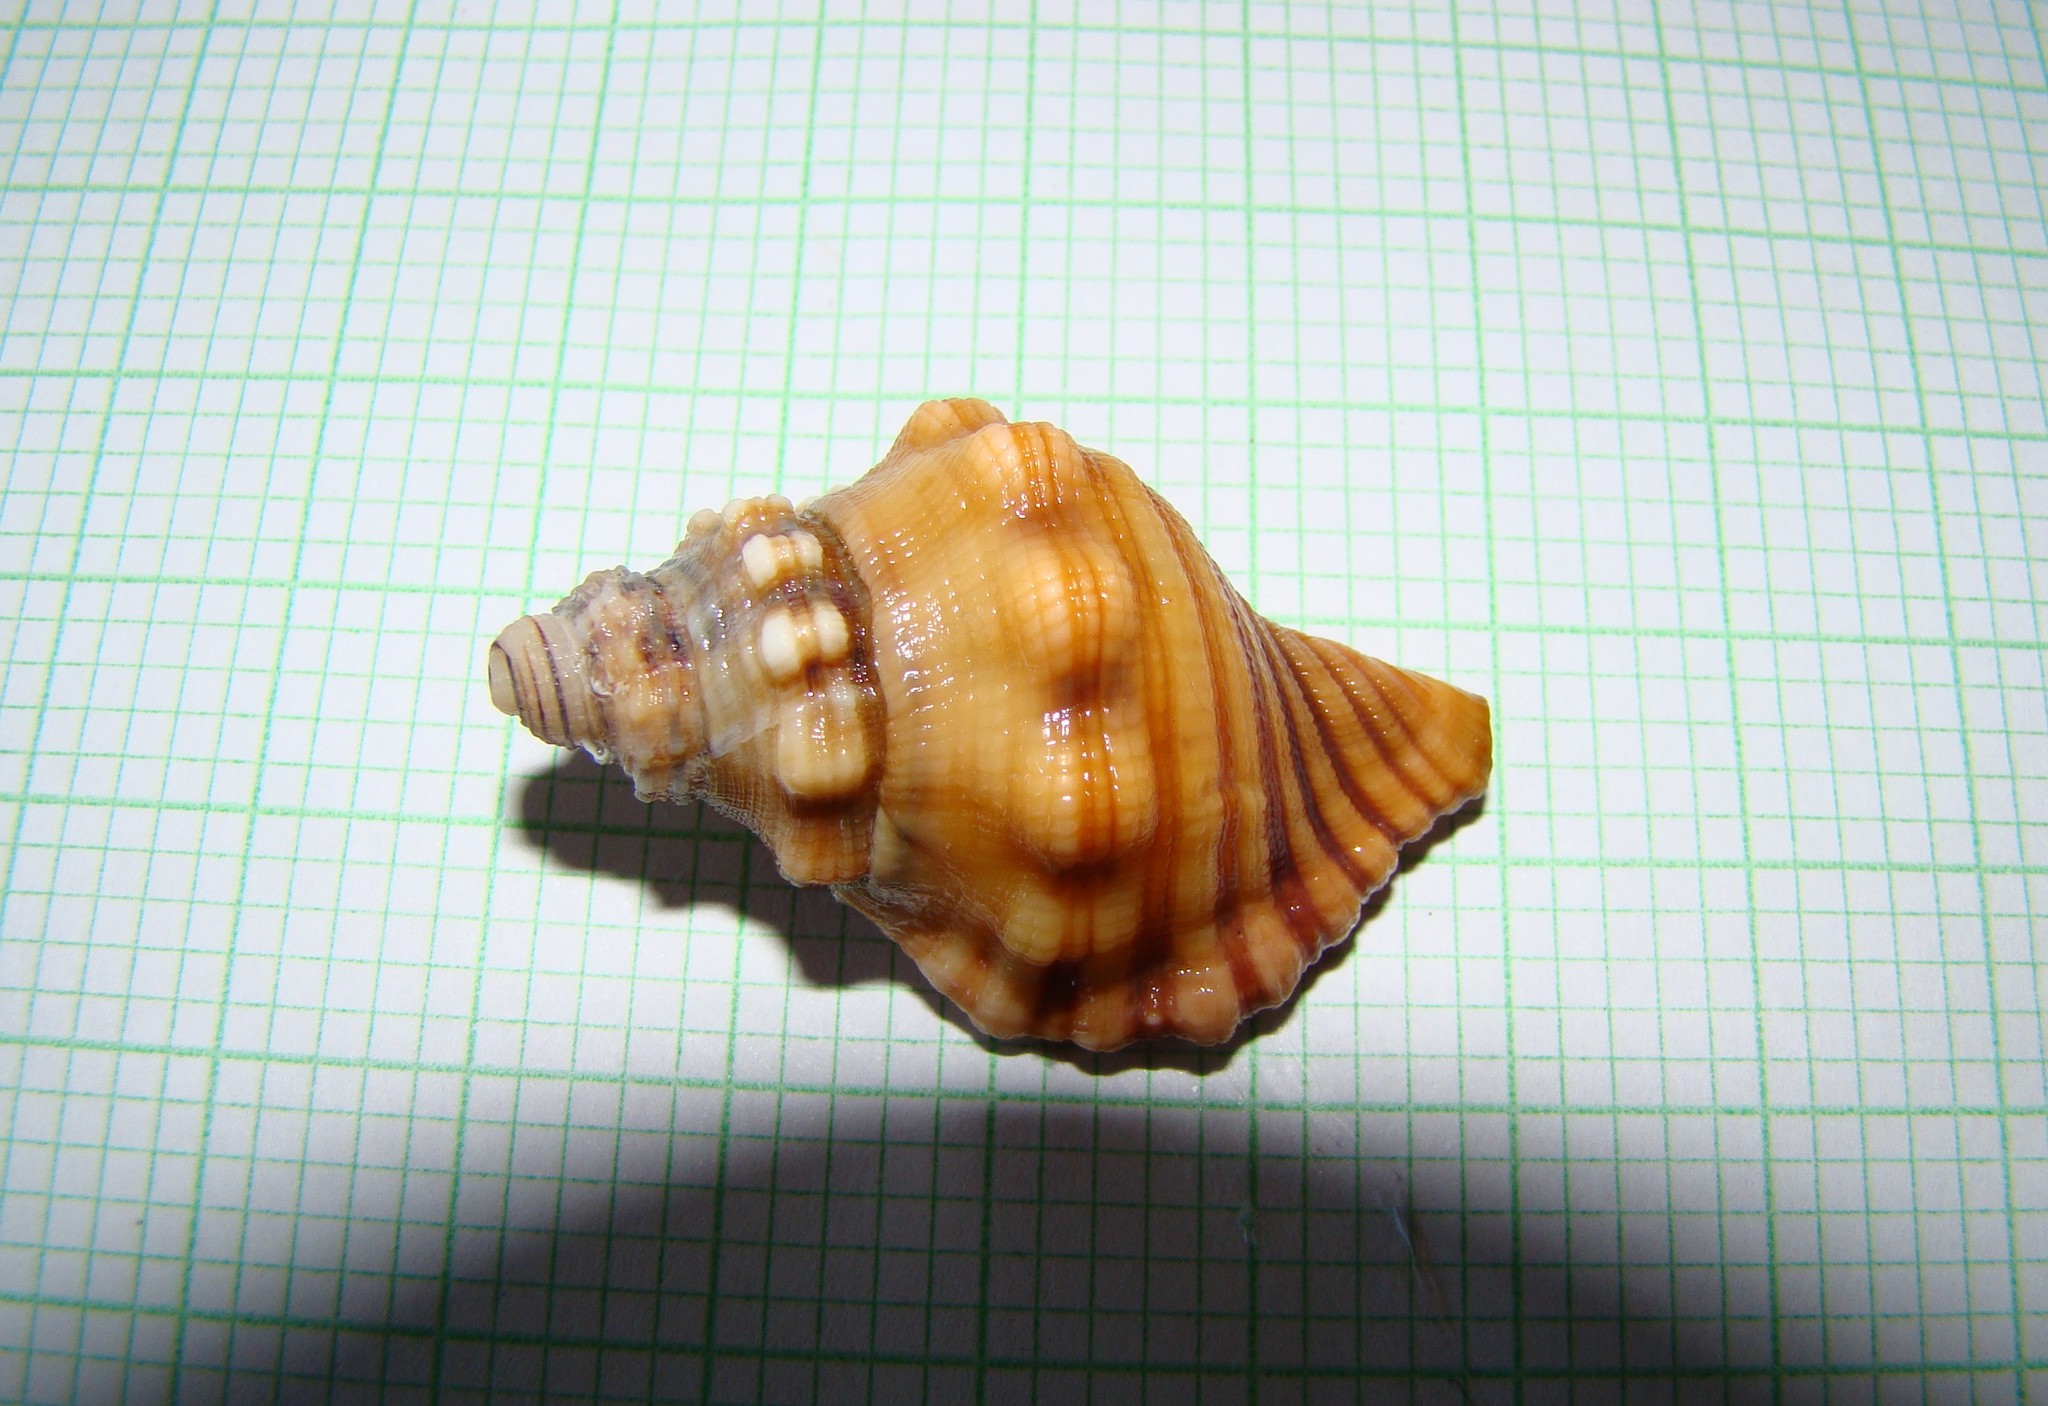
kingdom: Animalia
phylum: Mollusca
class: Gastropoda
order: Littorinimorpha
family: Cymatiidae
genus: Cabestana
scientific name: Cabestana spengleri
